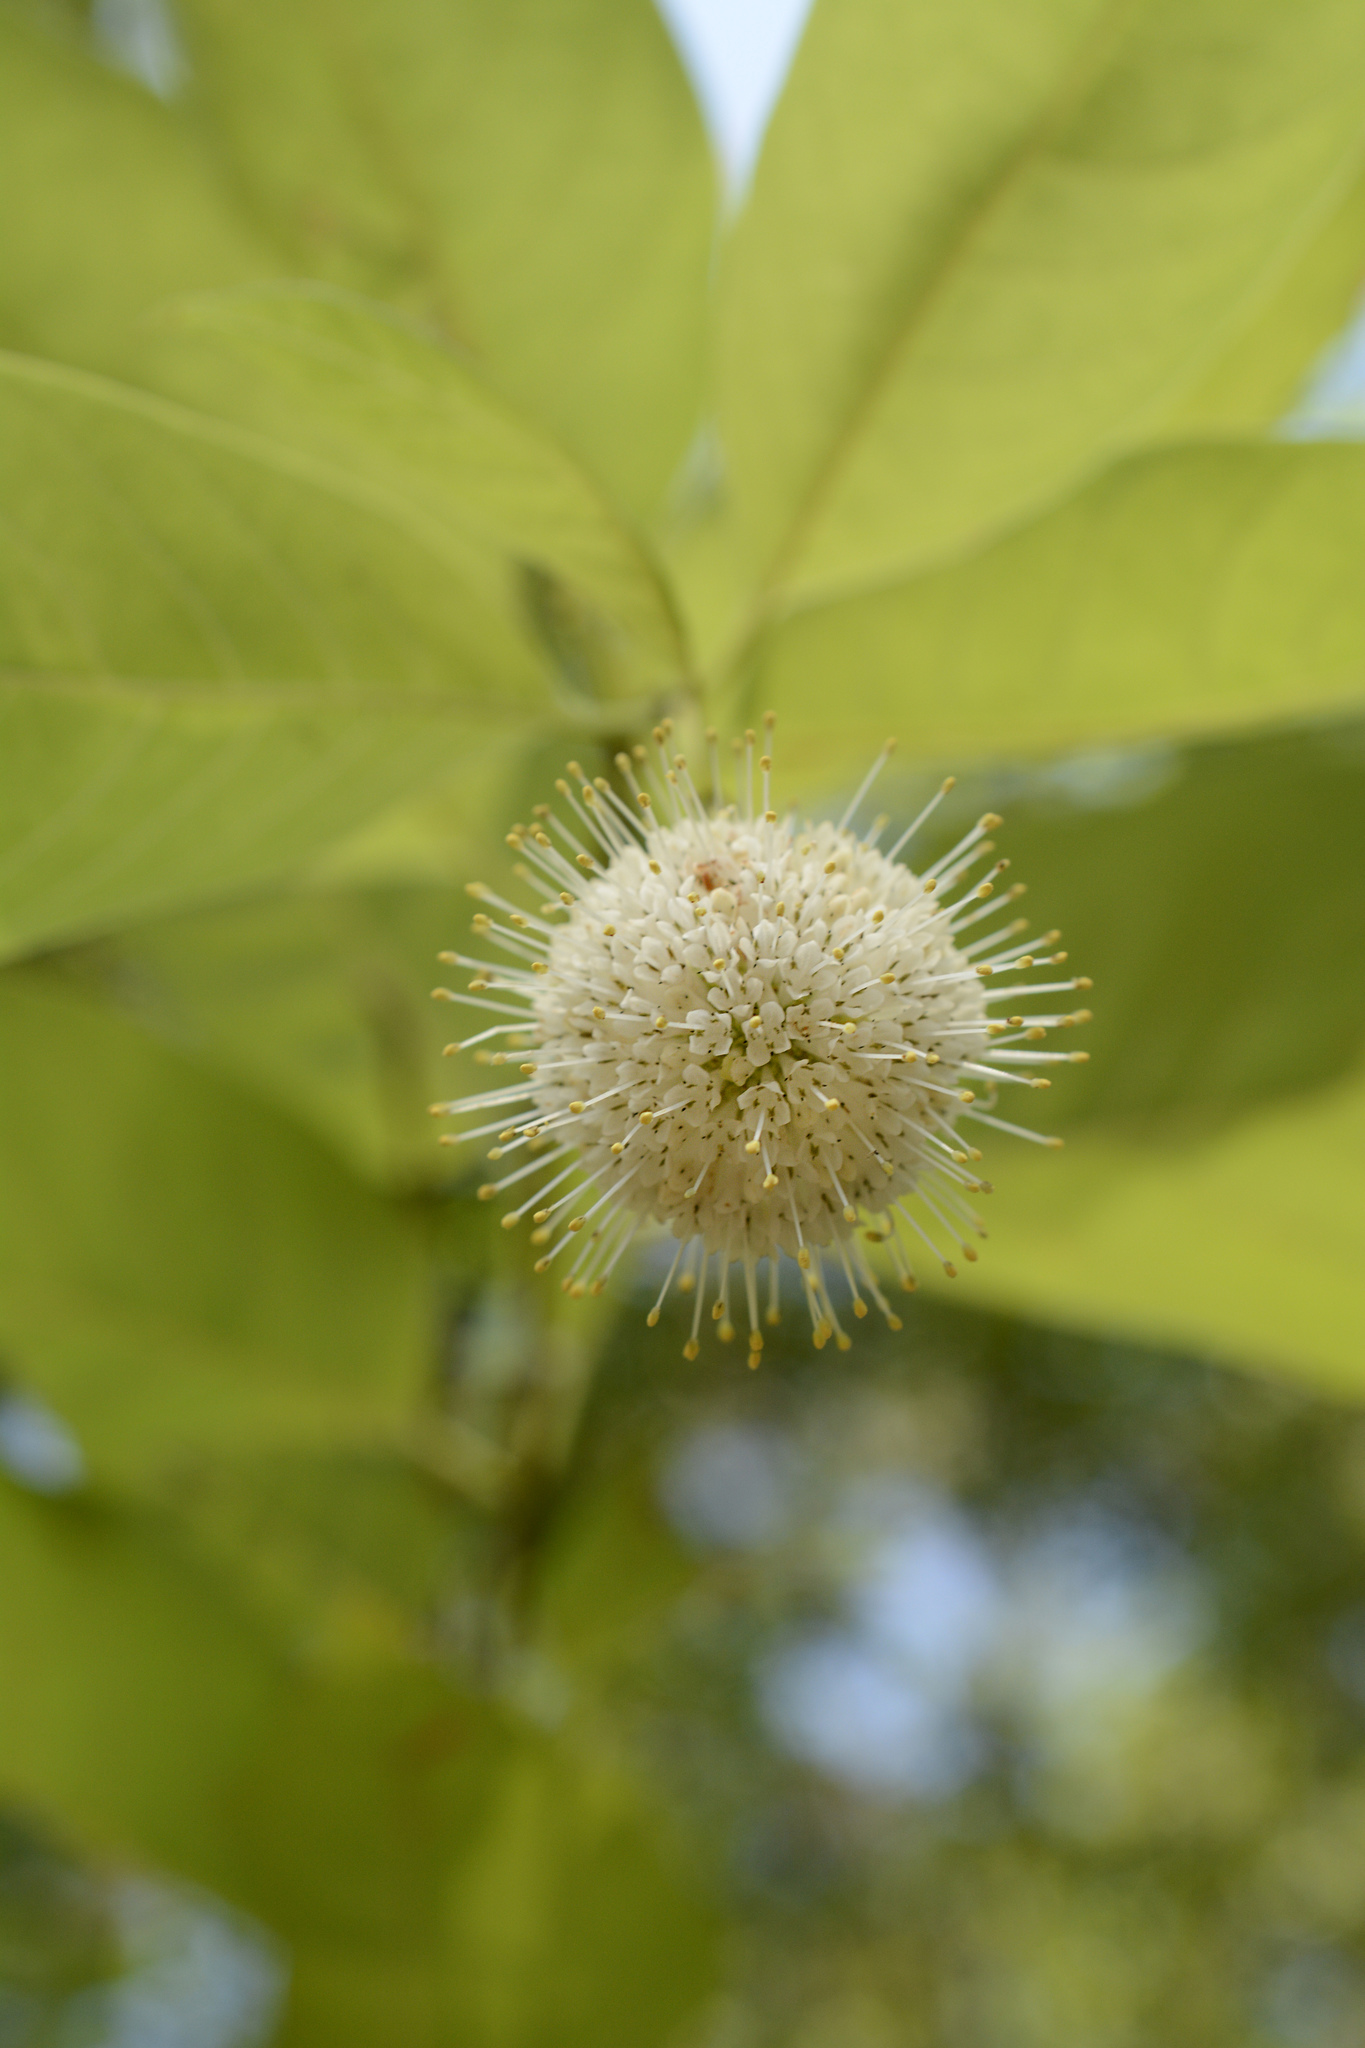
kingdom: Plantae
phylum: Tracheophyta
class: Magnoliopsida
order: Gentianales
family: Rubiaceae
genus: Cephalanthus
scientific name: Cephalanthus occidentalis
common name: Button-willow
